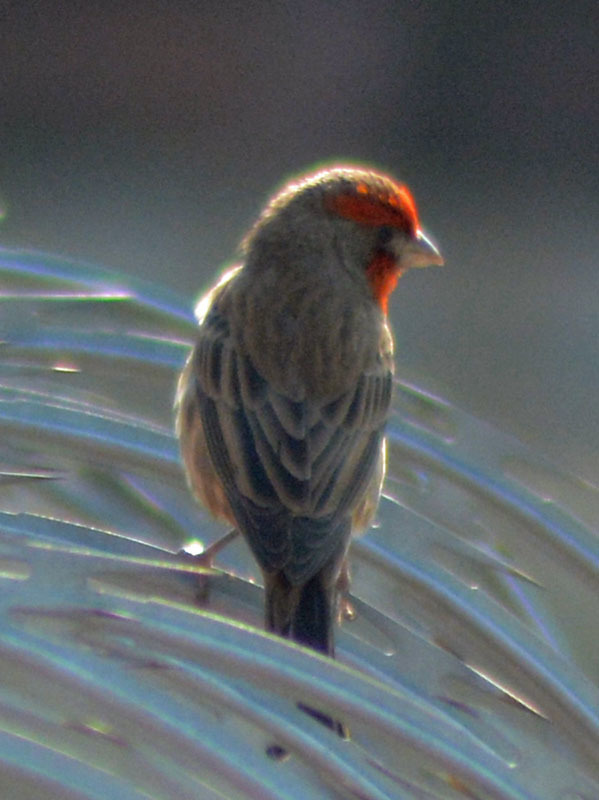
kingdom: Animalia
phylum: Chordata
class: Aves
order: Passeriformes
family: Fringillidae
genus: Haemorhous
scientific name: Haemorhous mexicanus
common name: House finch
